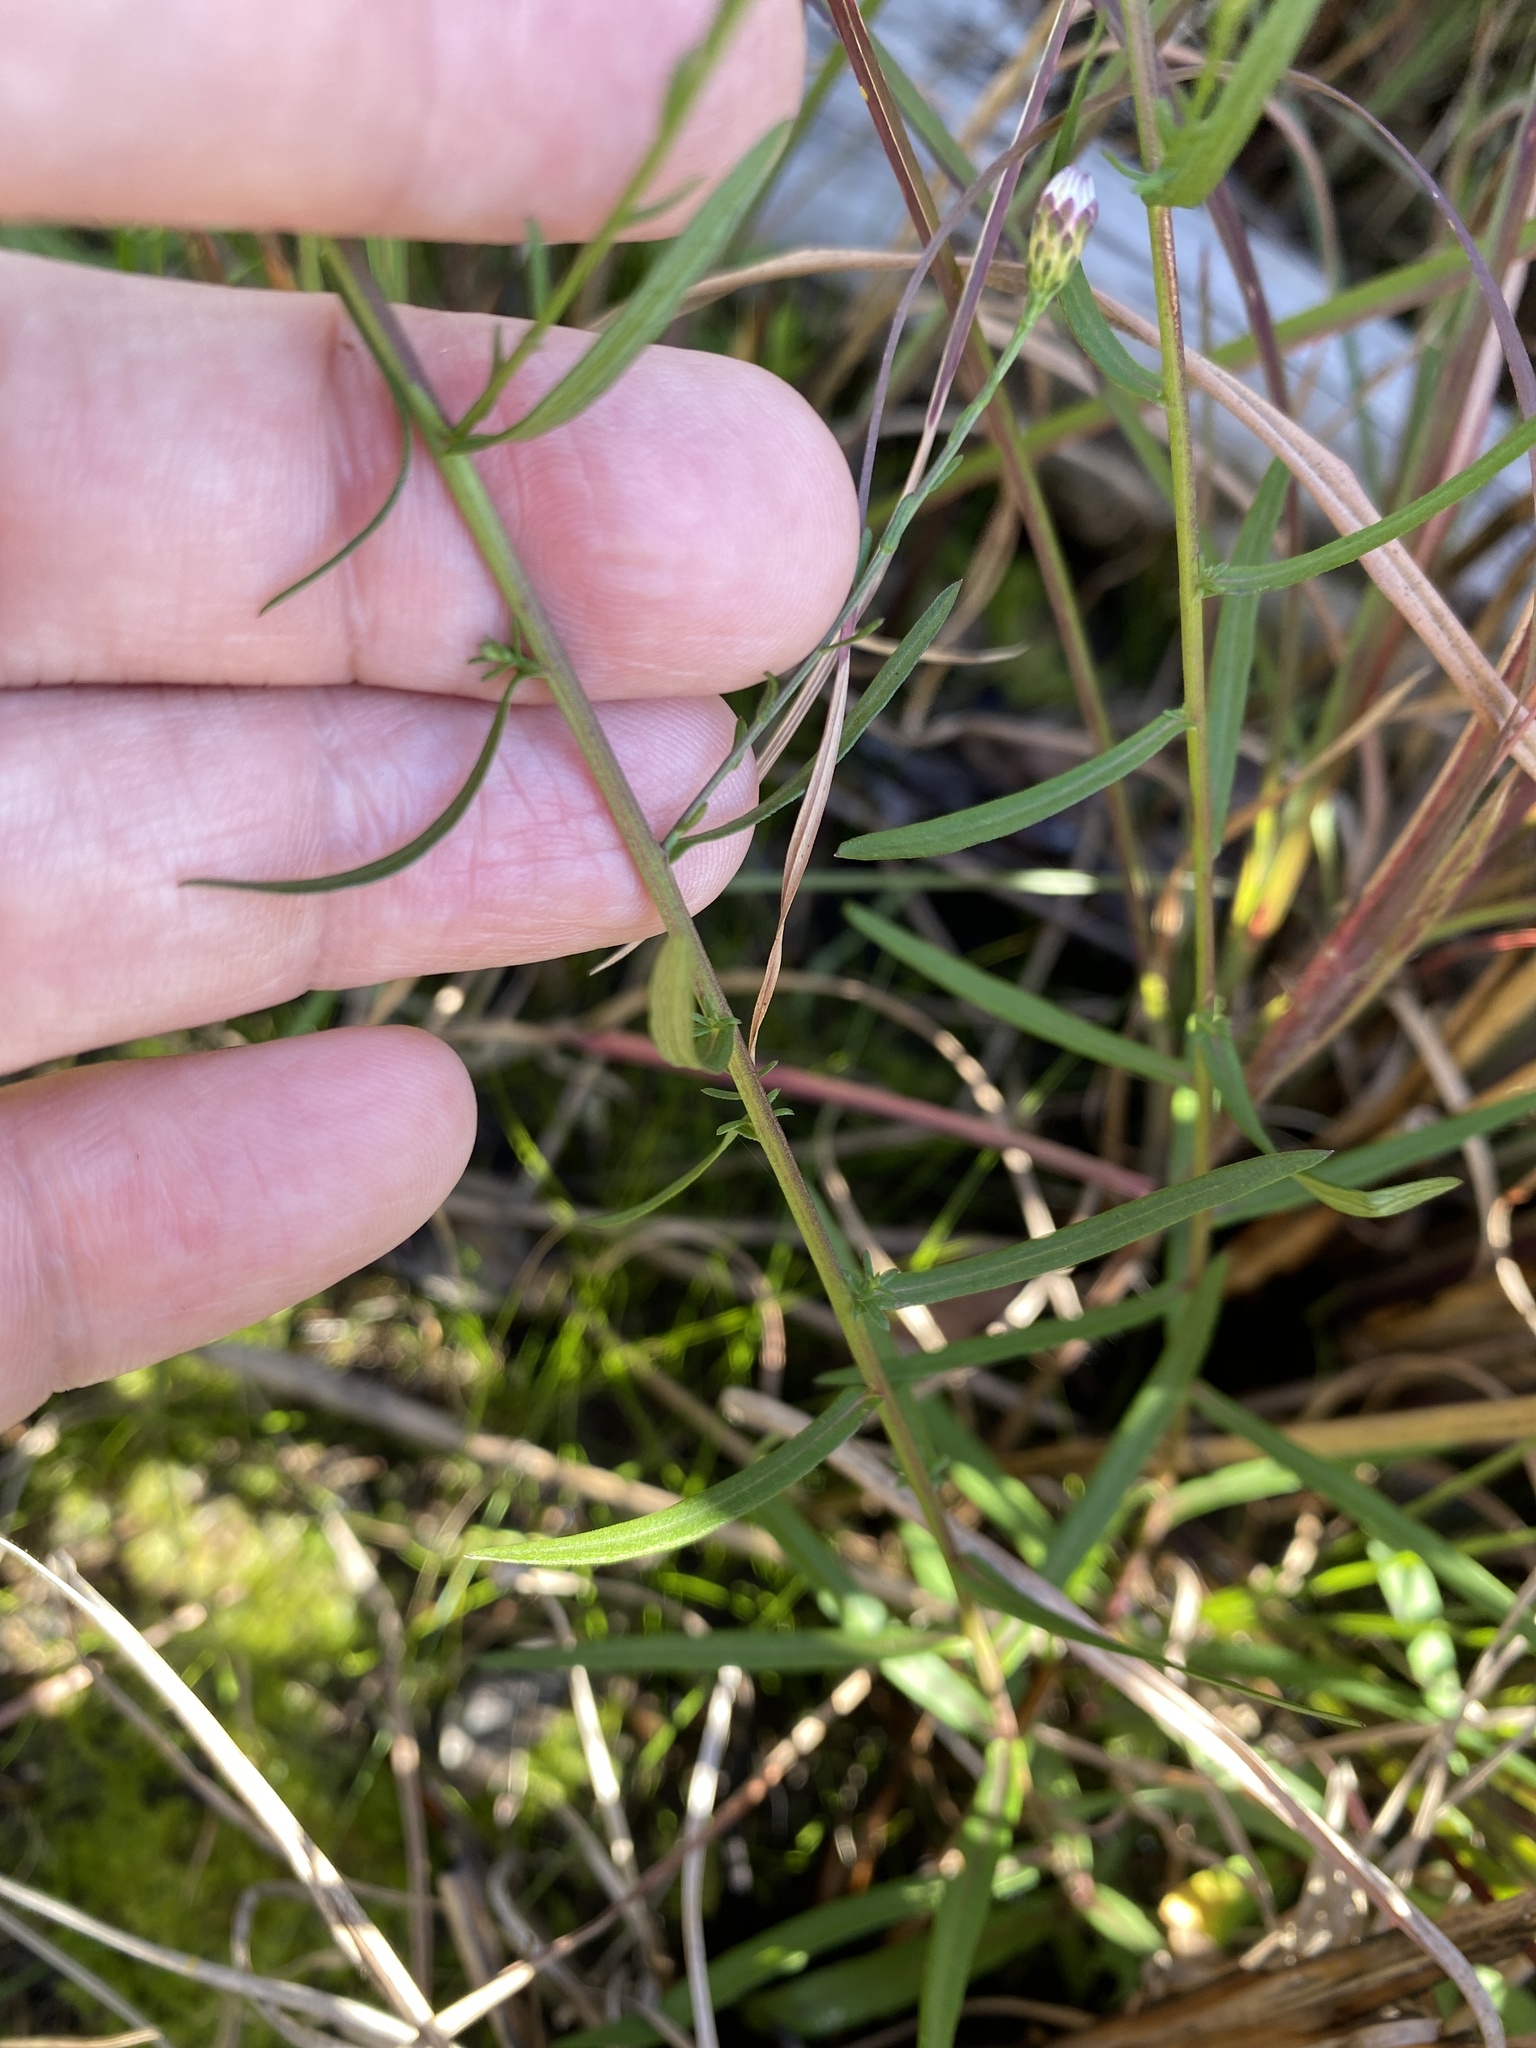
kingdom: Plantae
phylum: Tracheophyta
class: Magnoliopsida
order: Asterales
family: Asteraceae
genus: Symphyotrichum
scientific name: Symphyotrichum dumosum
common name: Bushy aster
